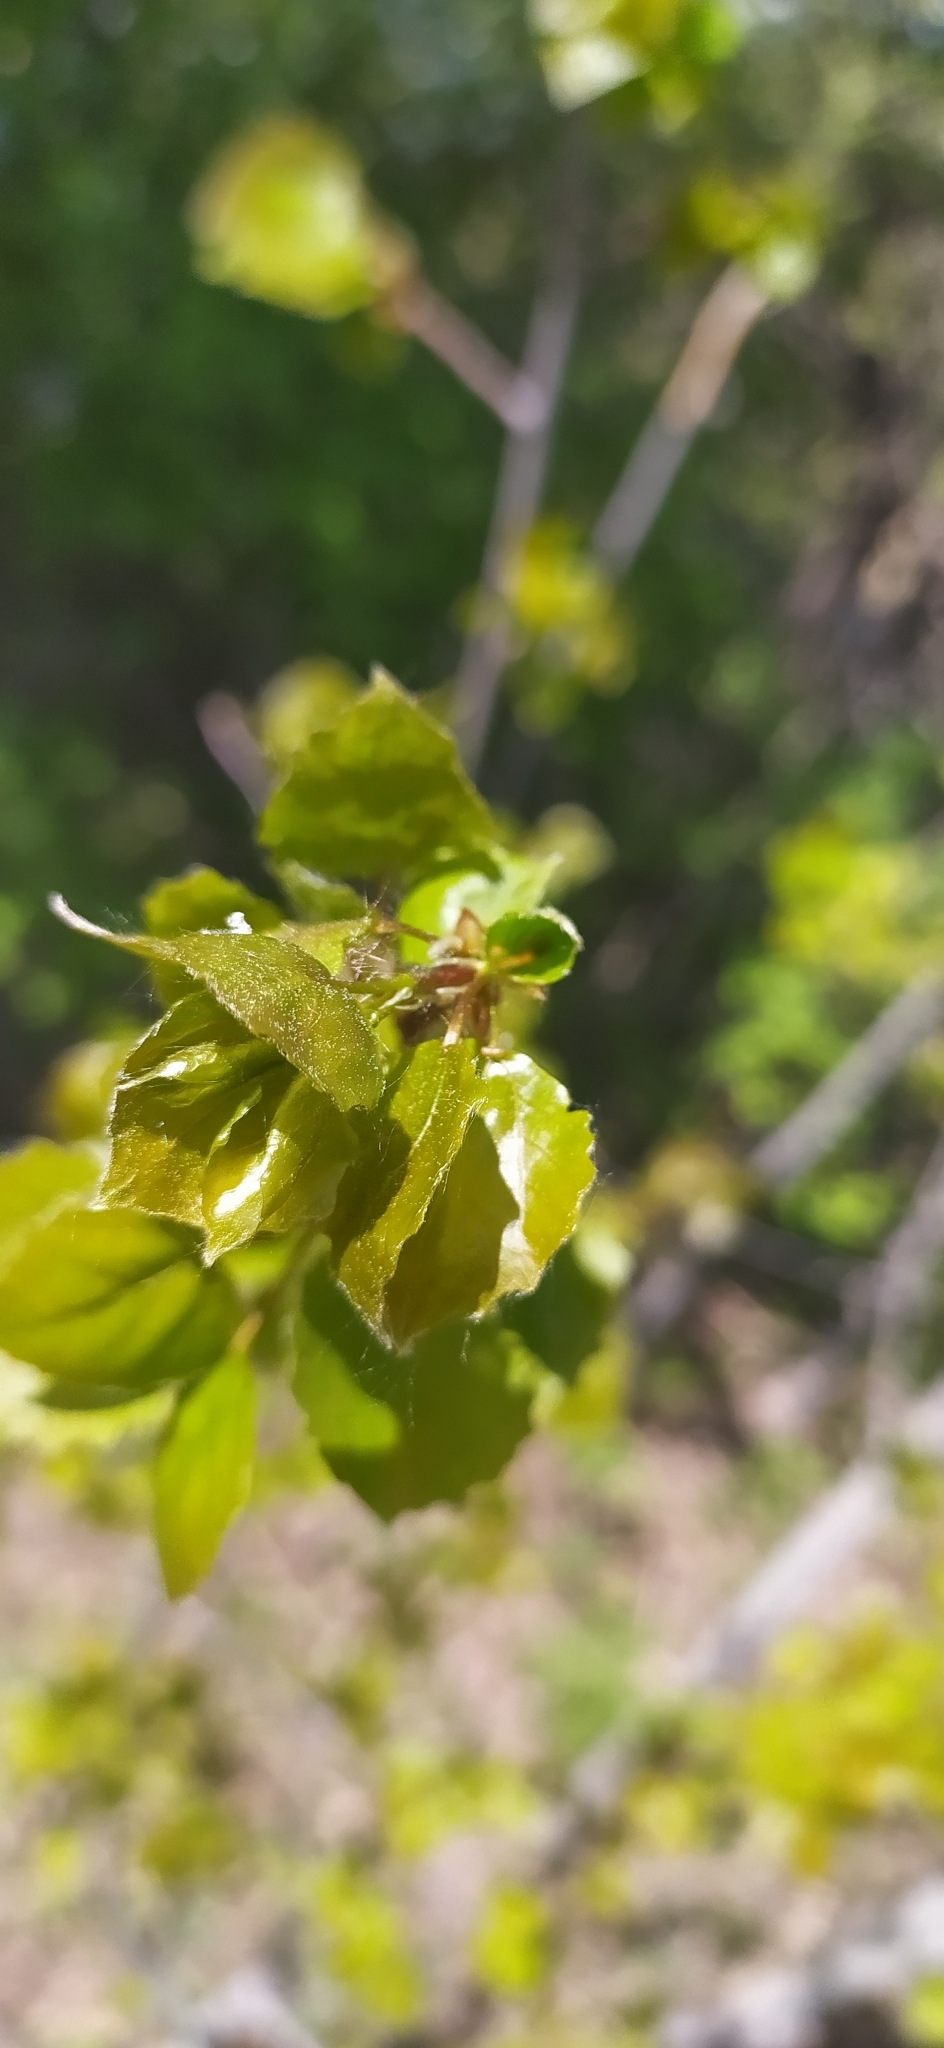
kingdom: Plantae
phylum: Tracheophyta
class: Magnoliopsida
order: Malpighiales
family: Salicaceae
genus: Populus
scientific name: Populus tremula
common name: European aspen
